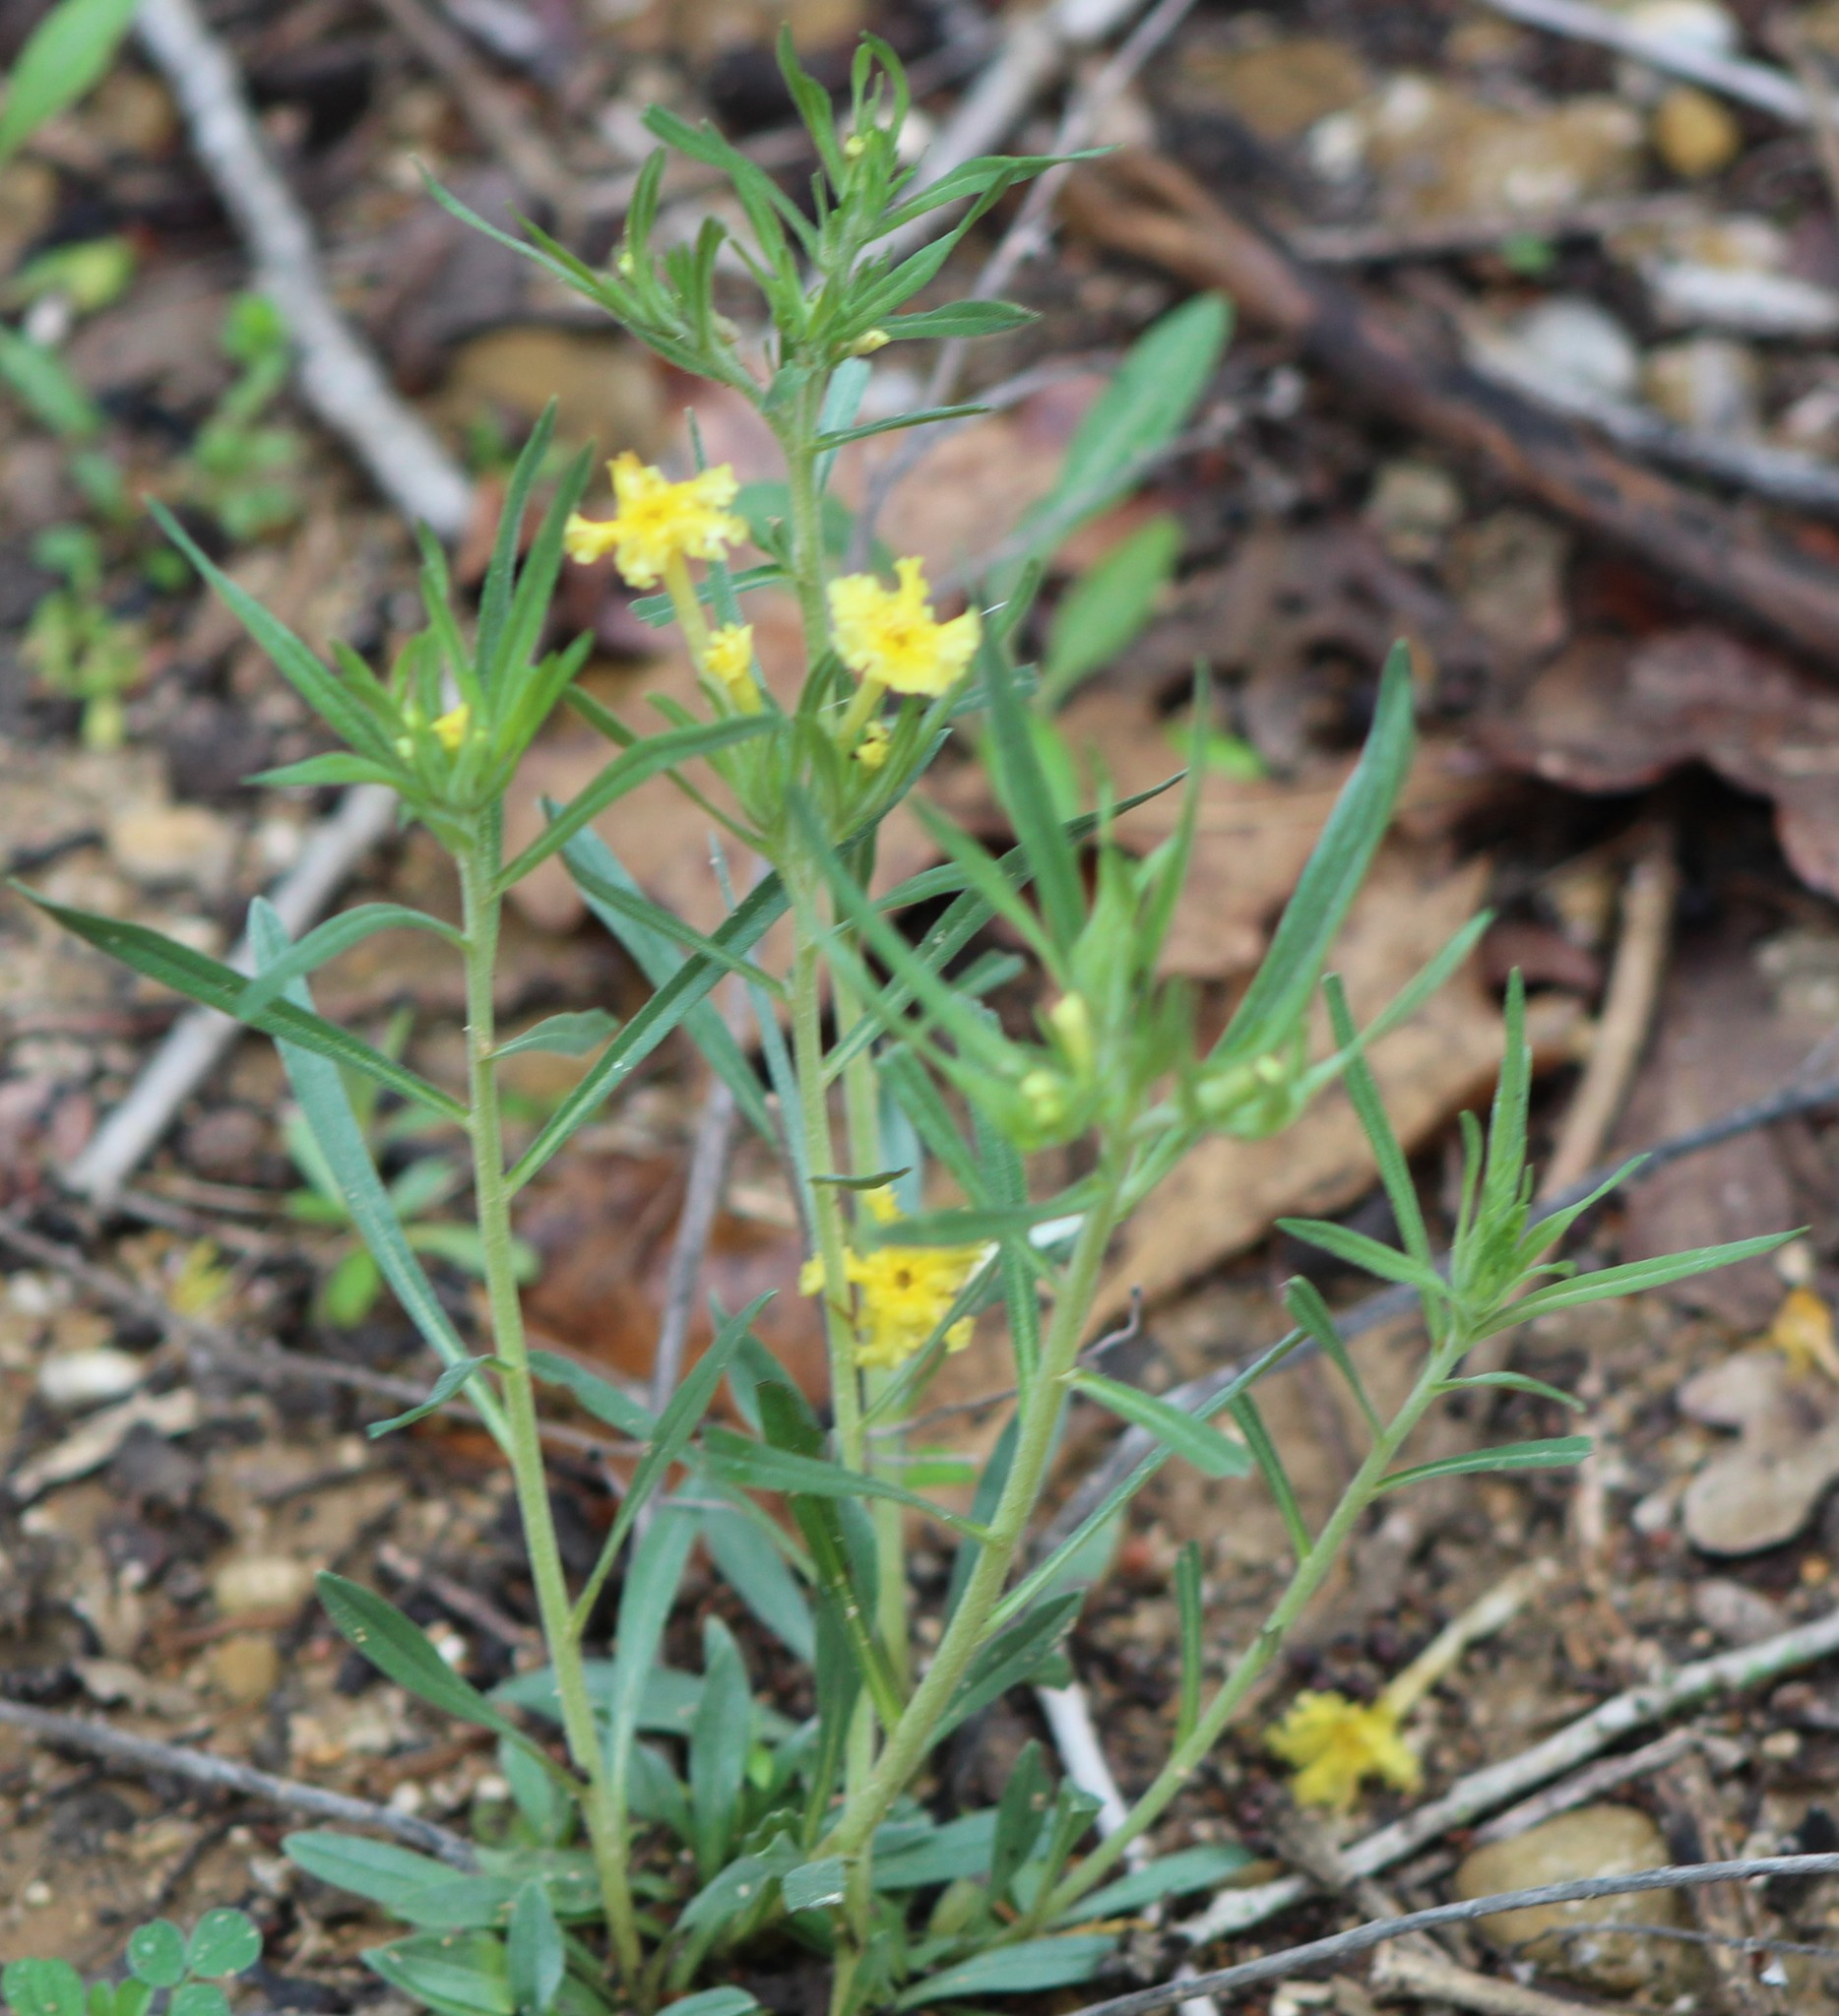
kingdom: Plantae
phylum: Tracheophyta
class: Magnoliopsida
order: Boraginales
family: Boraginaceae
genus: Lithospermum
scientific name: Lithospermum incisum
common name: Fringed gromwell
